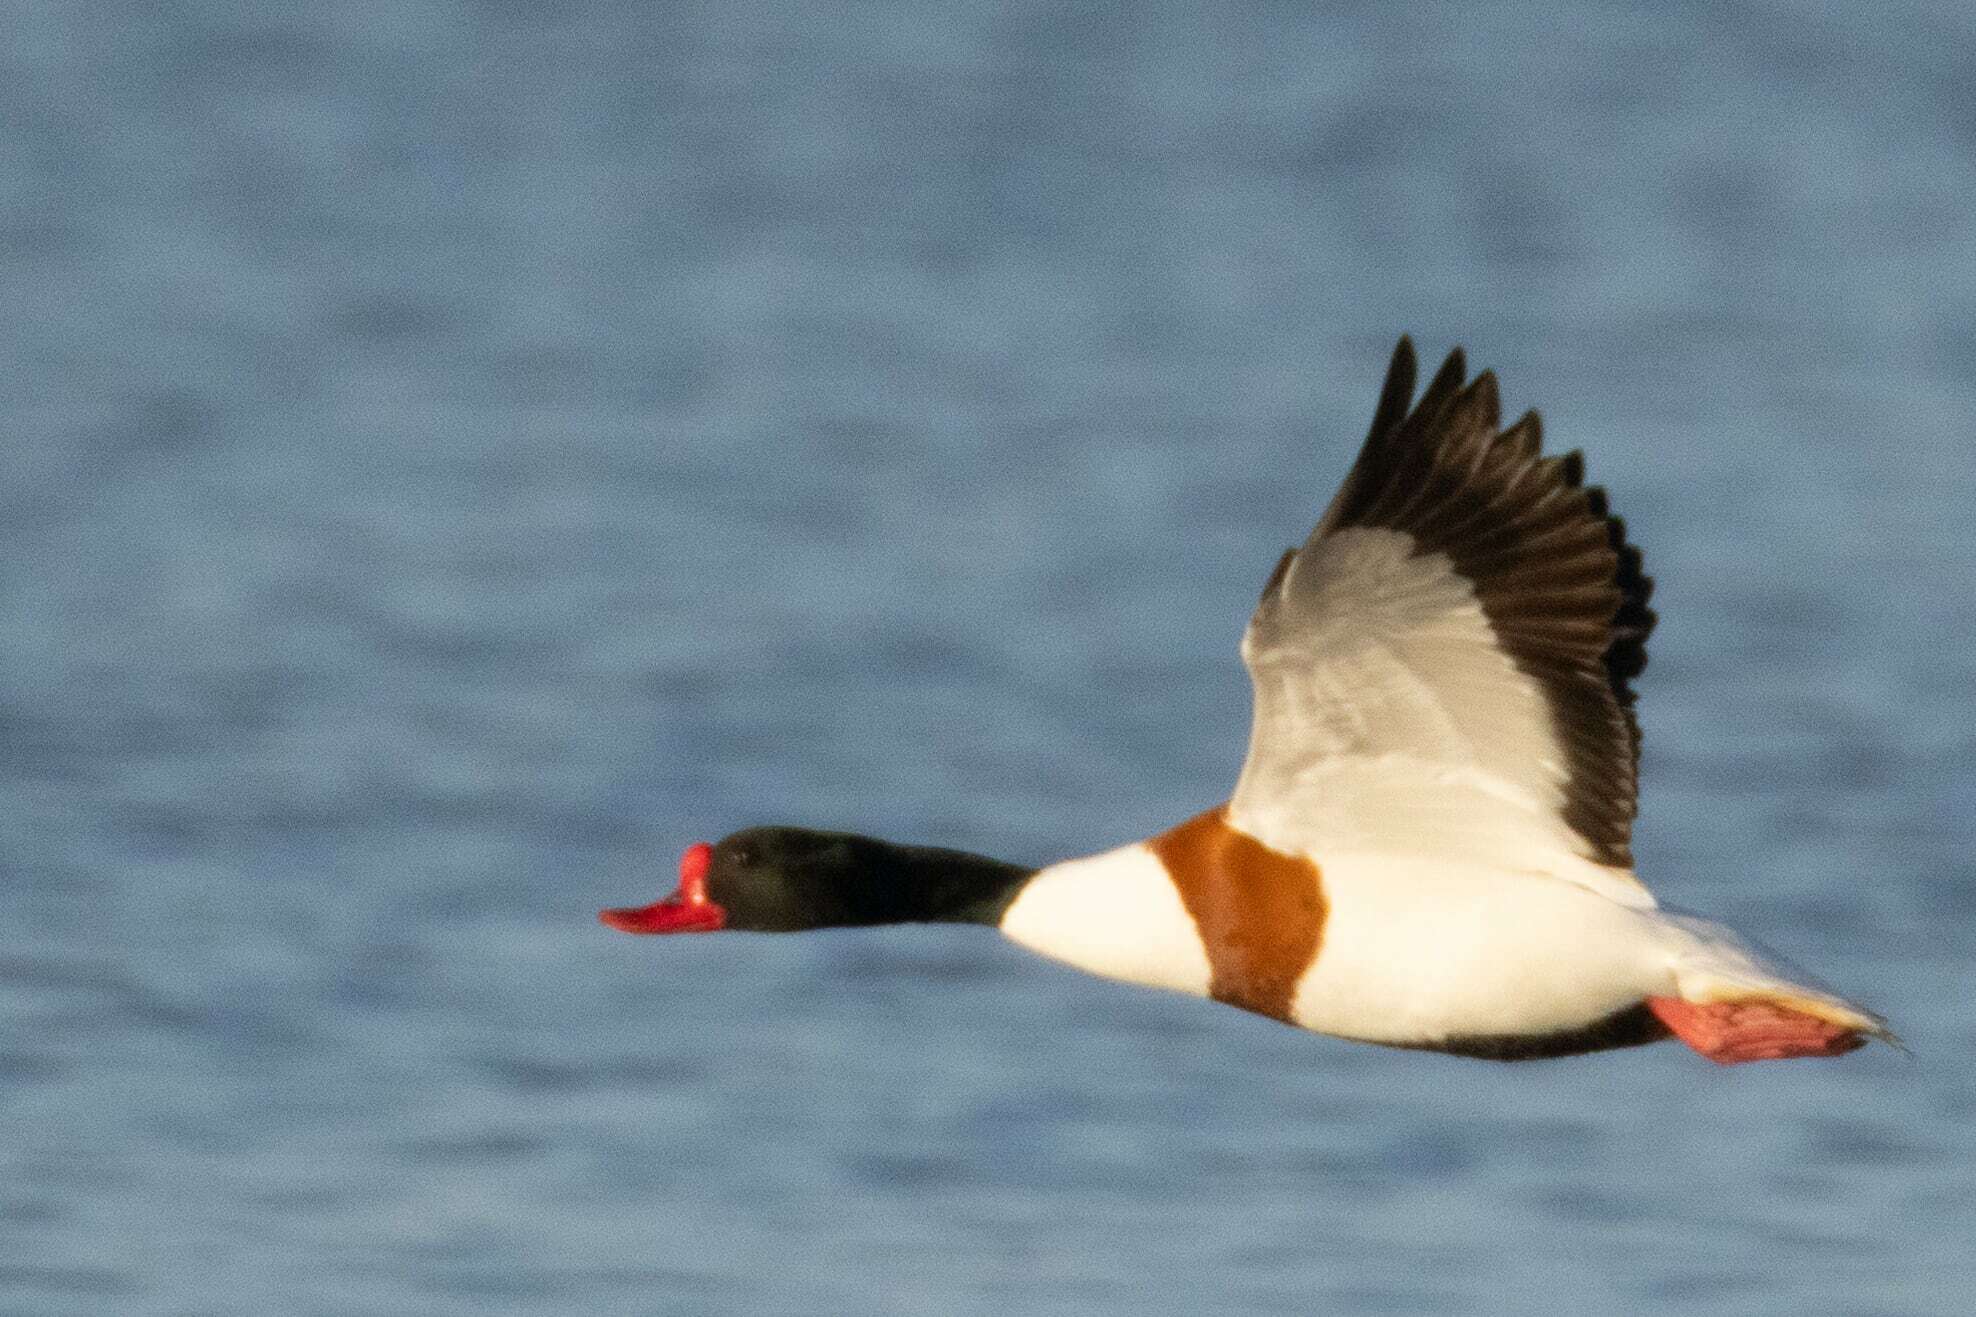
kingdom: Animalia
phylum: Chordata
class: Aves
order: Anseriformes
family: Anatidae
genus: Tadorna
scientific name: Tadorna tadorna
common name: Common shelduck
